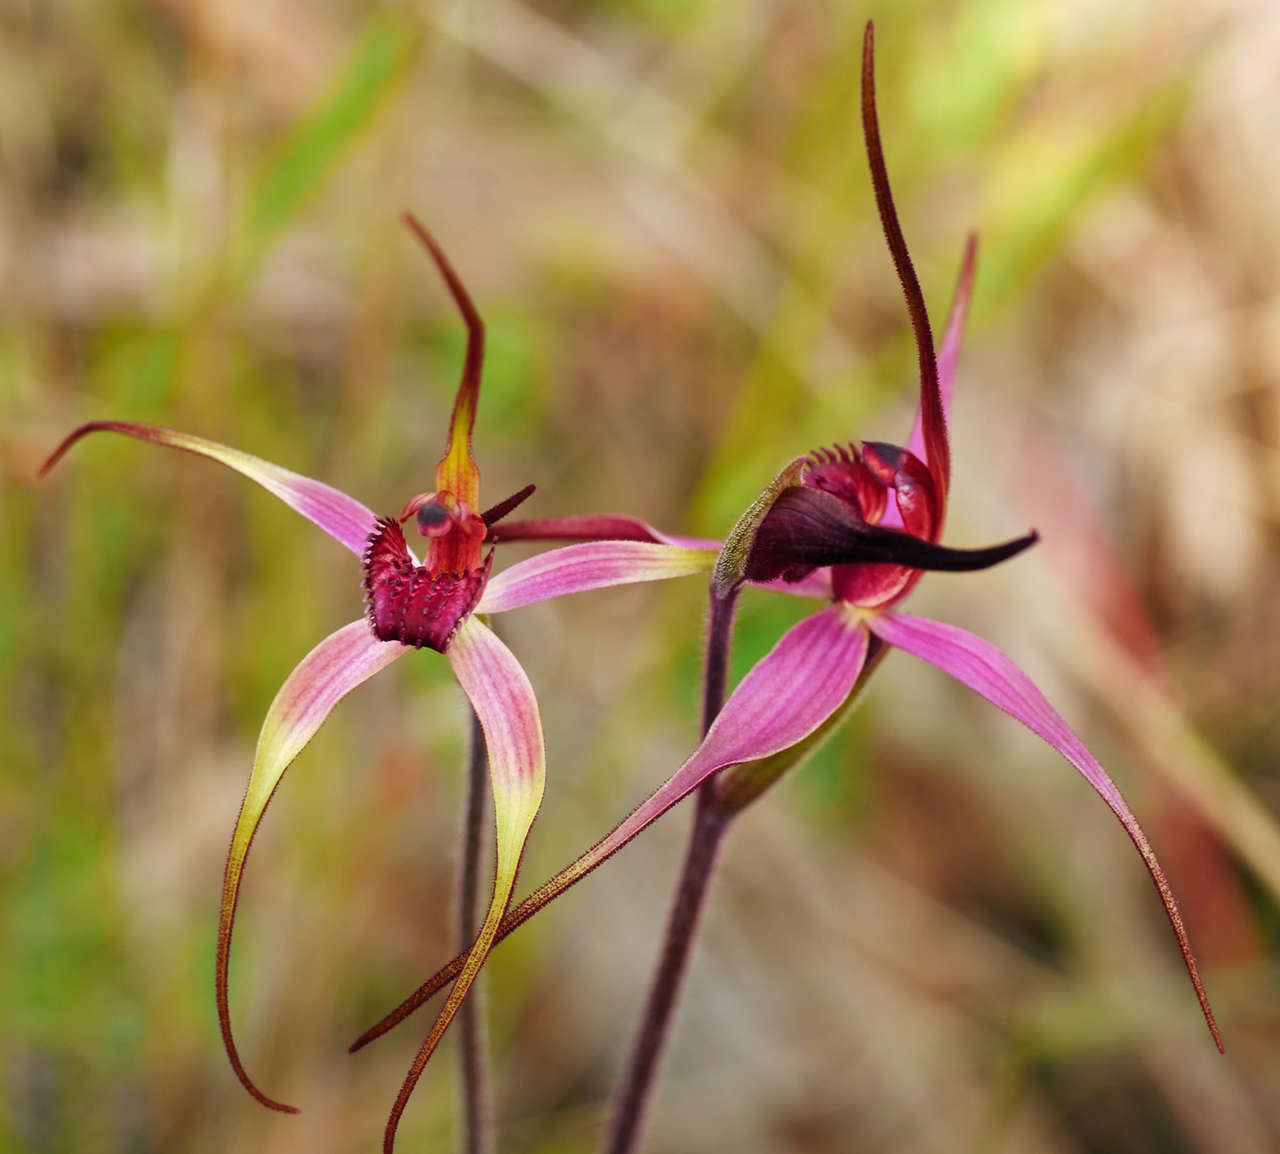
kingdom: Plantae
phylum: Tracheophyta
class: Liliopsida
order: Asparagales
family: Orchidaceae
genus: Caladenia
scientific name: Caladenia formosa
